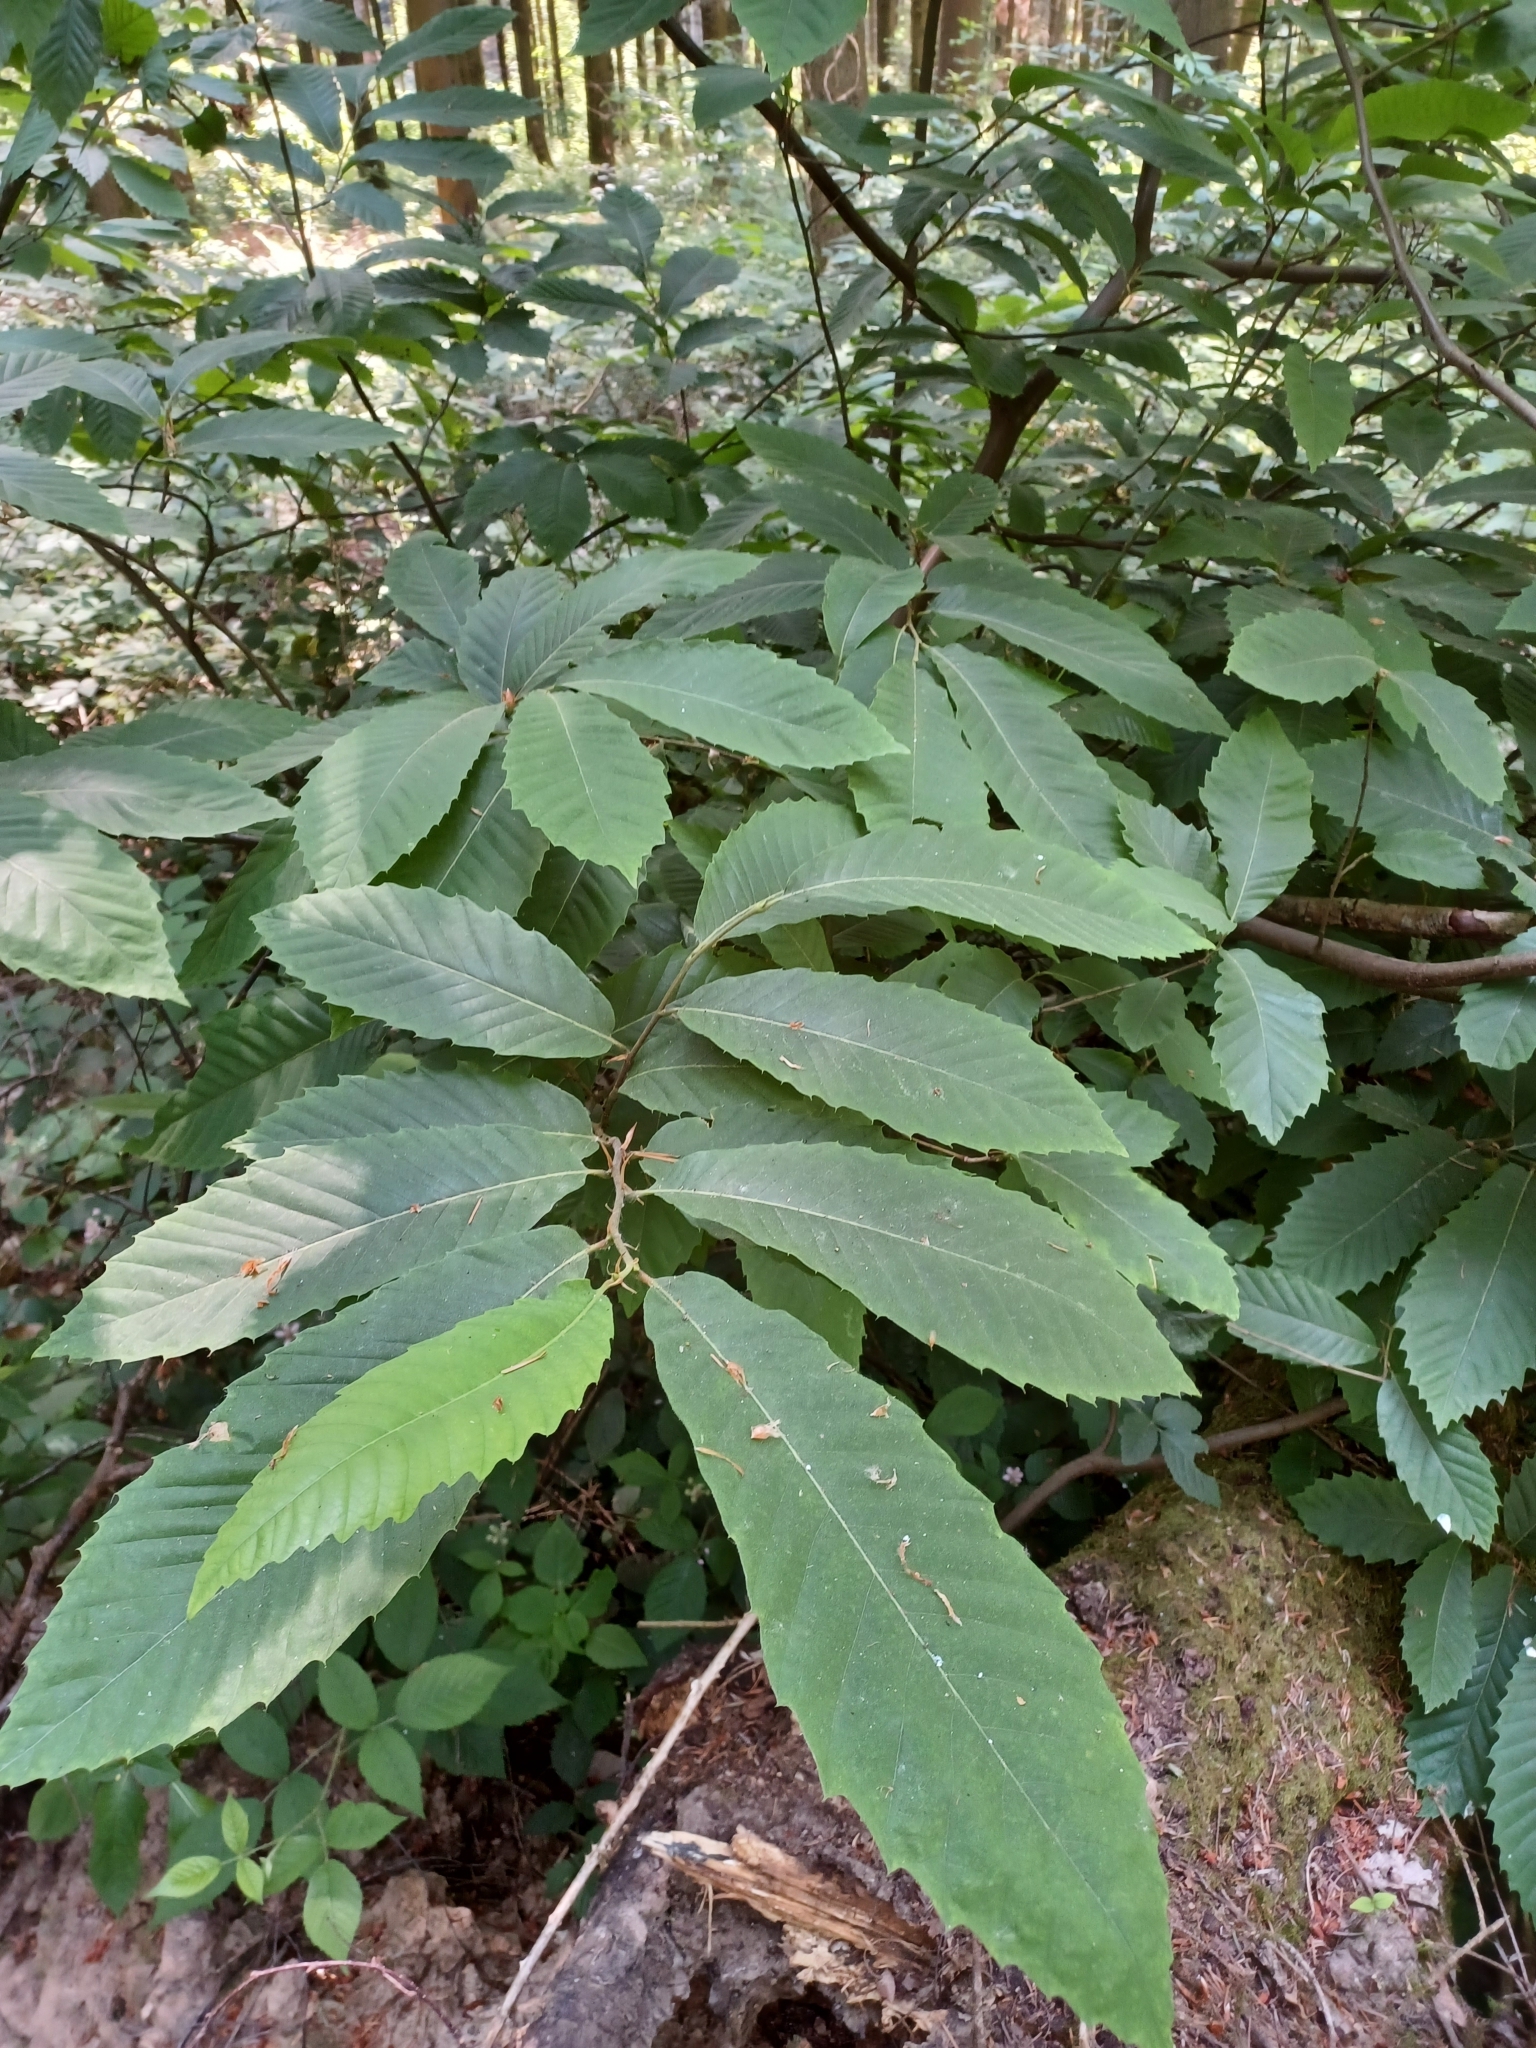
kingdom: Plantae
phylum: Tracheophyta
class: Magnoliopsida
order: Fagales
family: Fagaceae
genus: Castanea
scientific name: Castanea sativa
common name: Sweet chestnut
